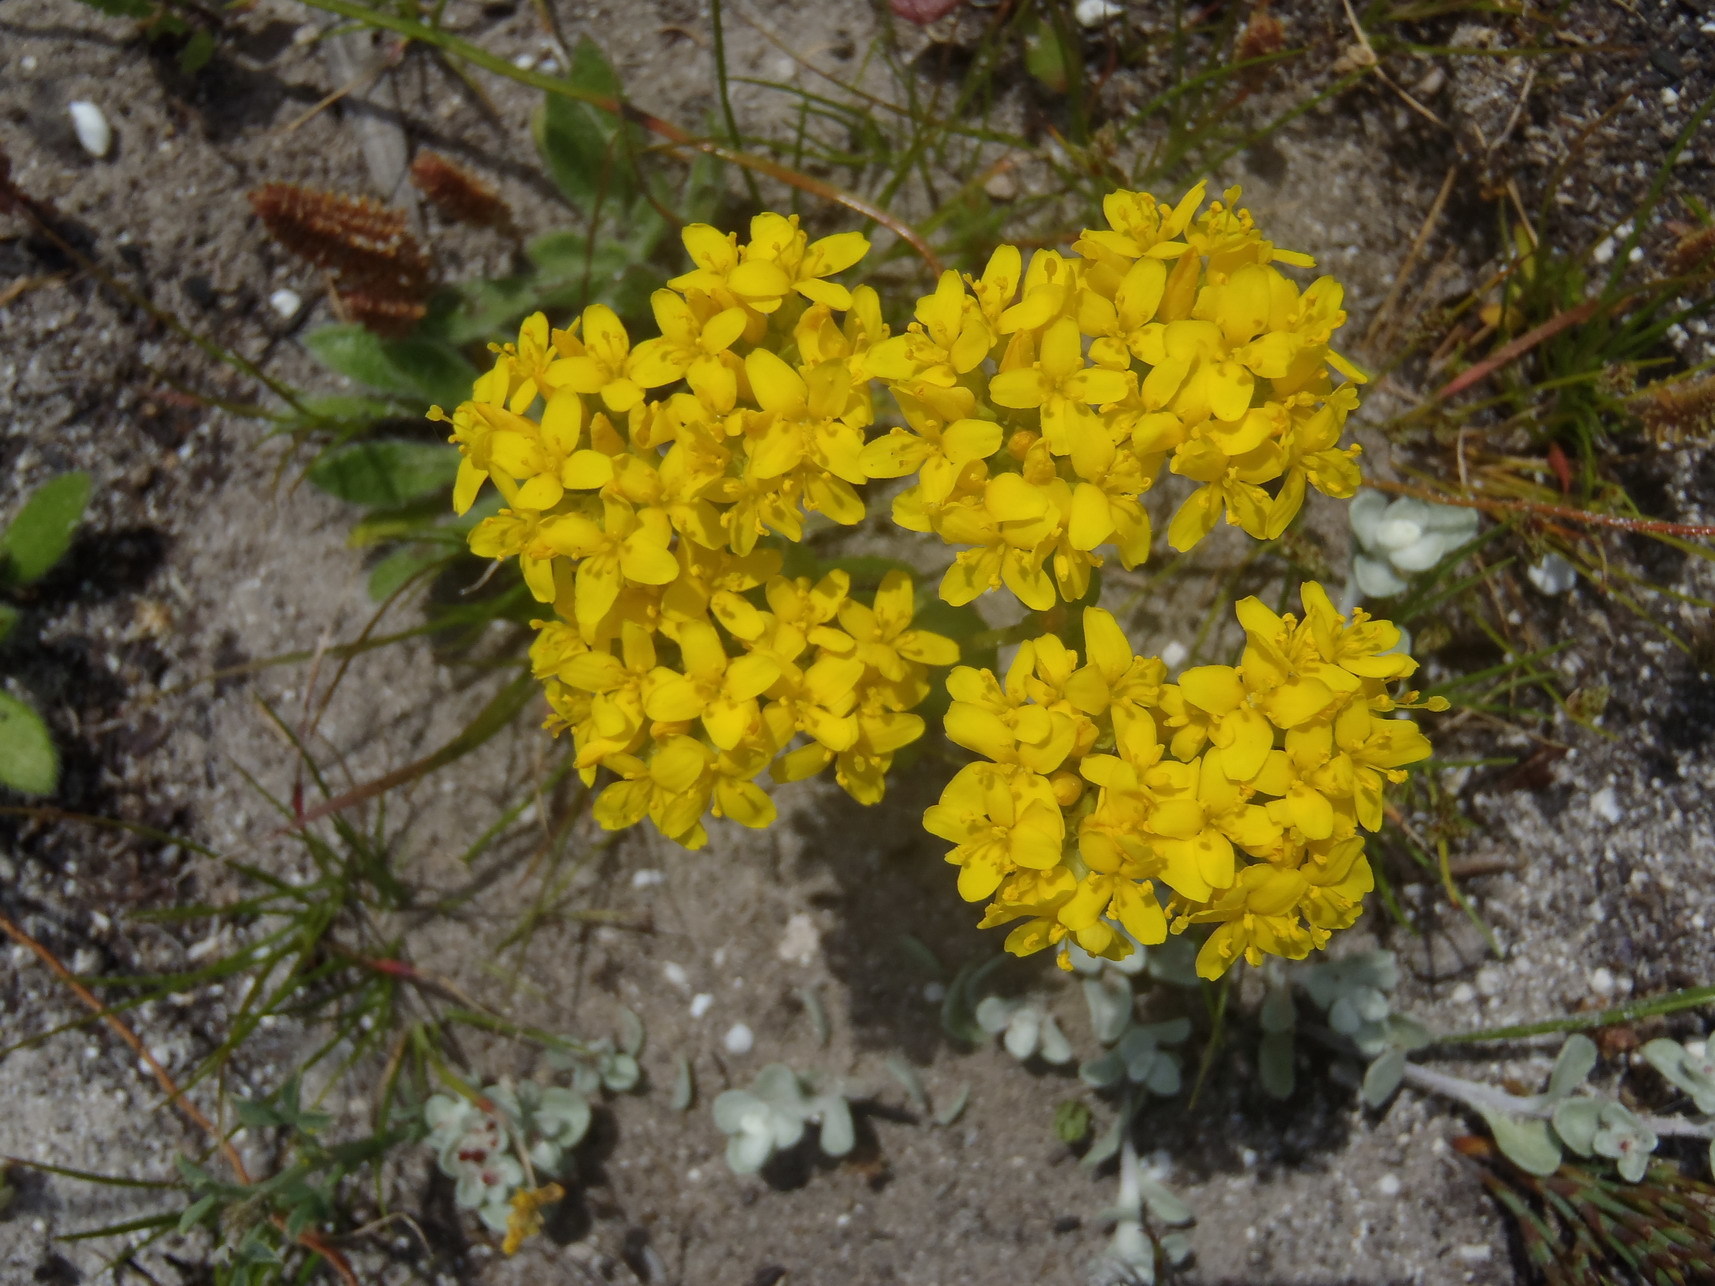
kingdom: Plantae
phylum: Tracheophyta
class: Magnoliopsida
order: Gentianales
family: Gentianaceae
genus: Sebaea
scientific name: Sebaea aurea
